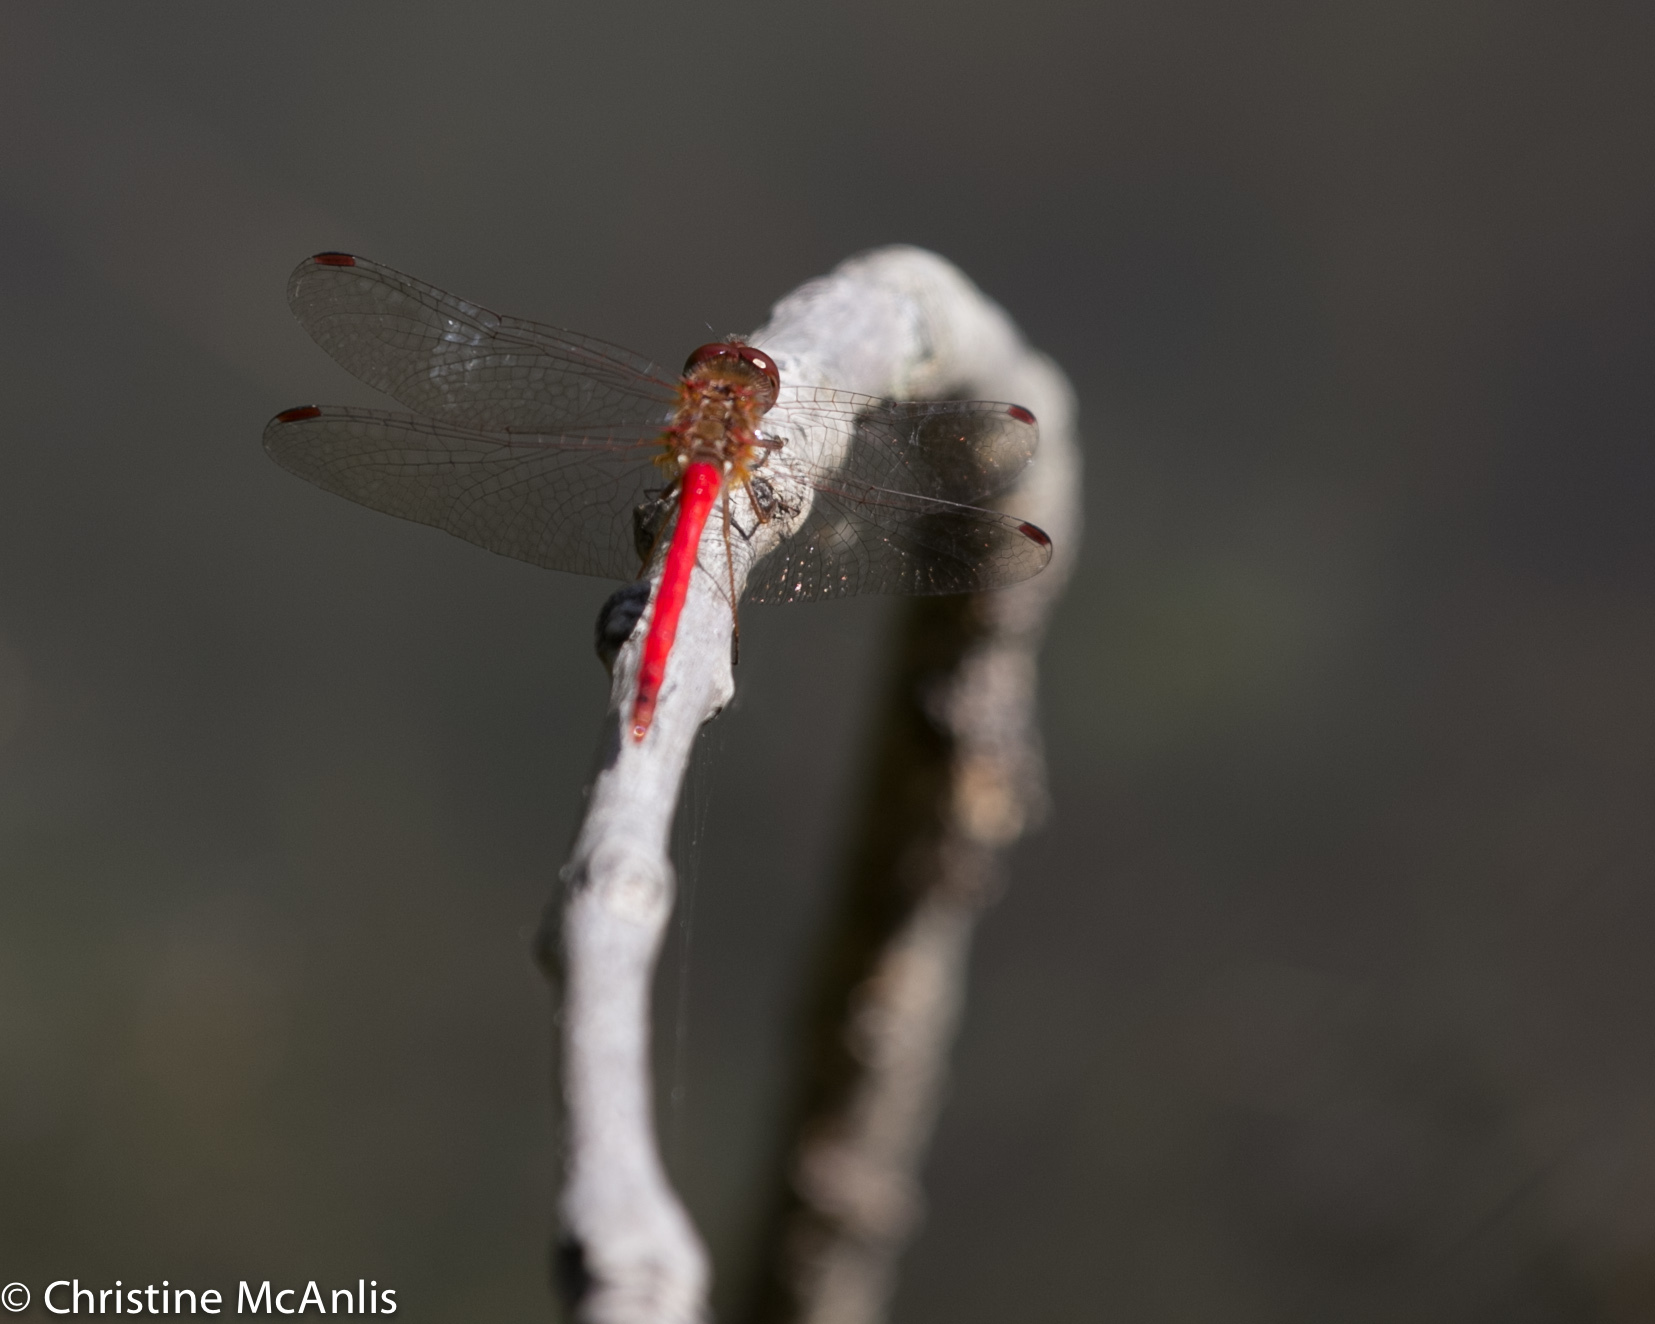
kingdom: Animalia
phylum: Arthropoda
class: Insecta
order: Odonata
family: Libellulidae
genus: Sympetrum
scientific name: Sympetrum vicinum
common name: Autumn meadowhawk
